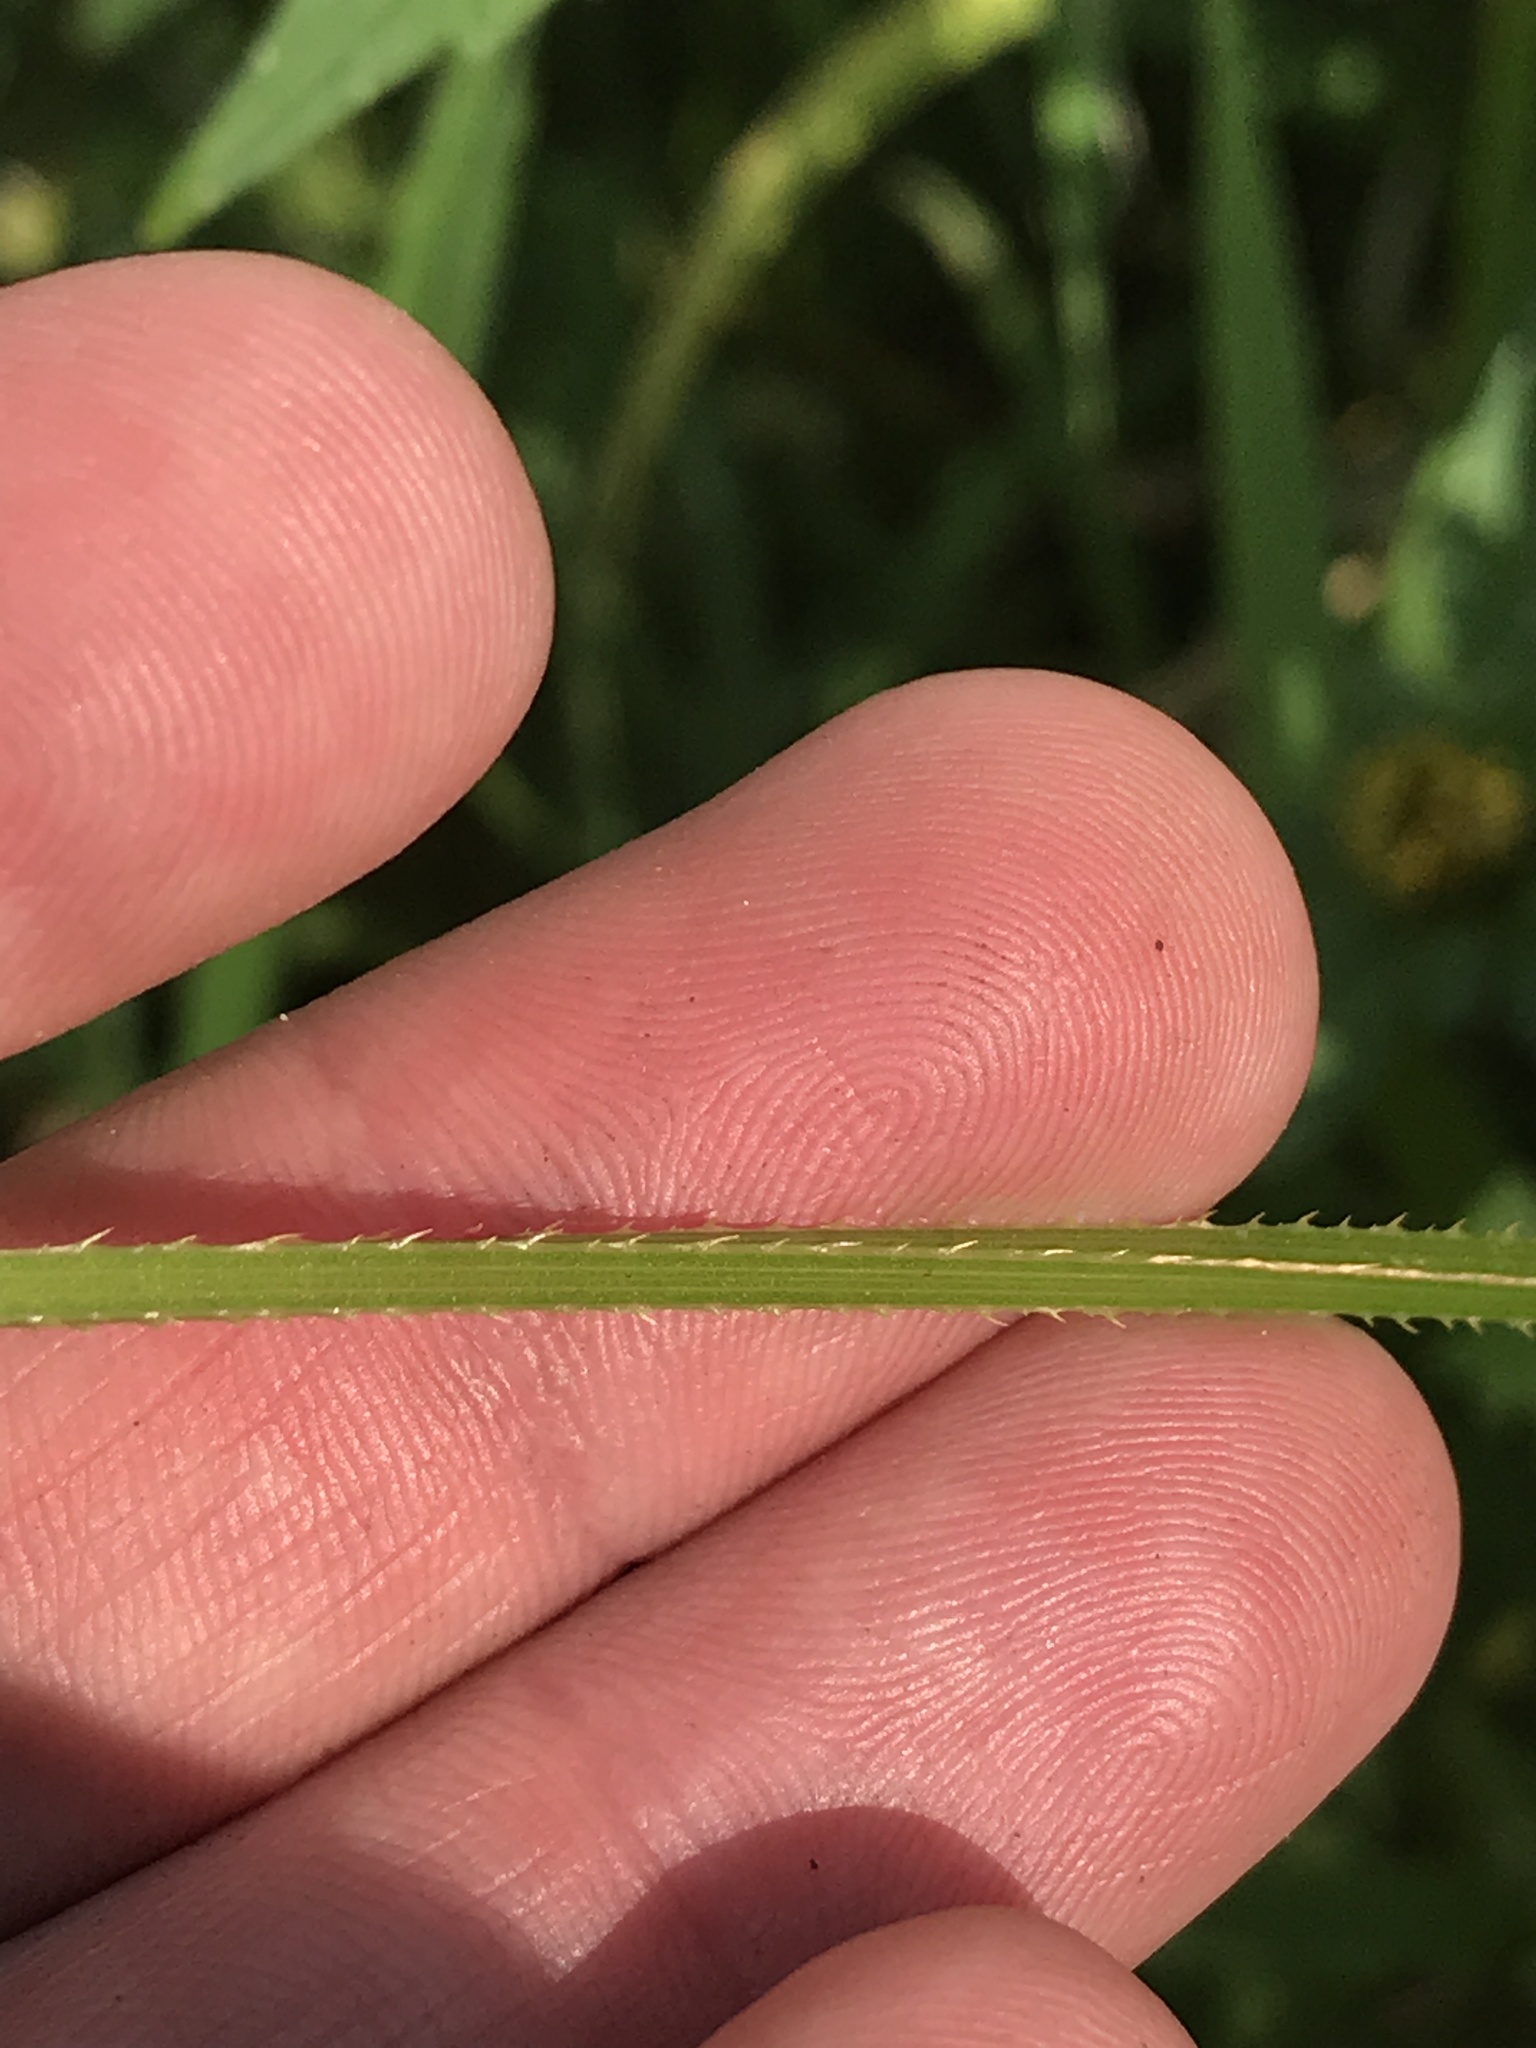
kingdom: Plantae
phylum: Tracheophyta
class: Magnoliopsida
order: Caryophyllales
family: Polygonaceae
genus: Persicaria
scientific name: Persicaria sagittata
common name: American tearthumb
